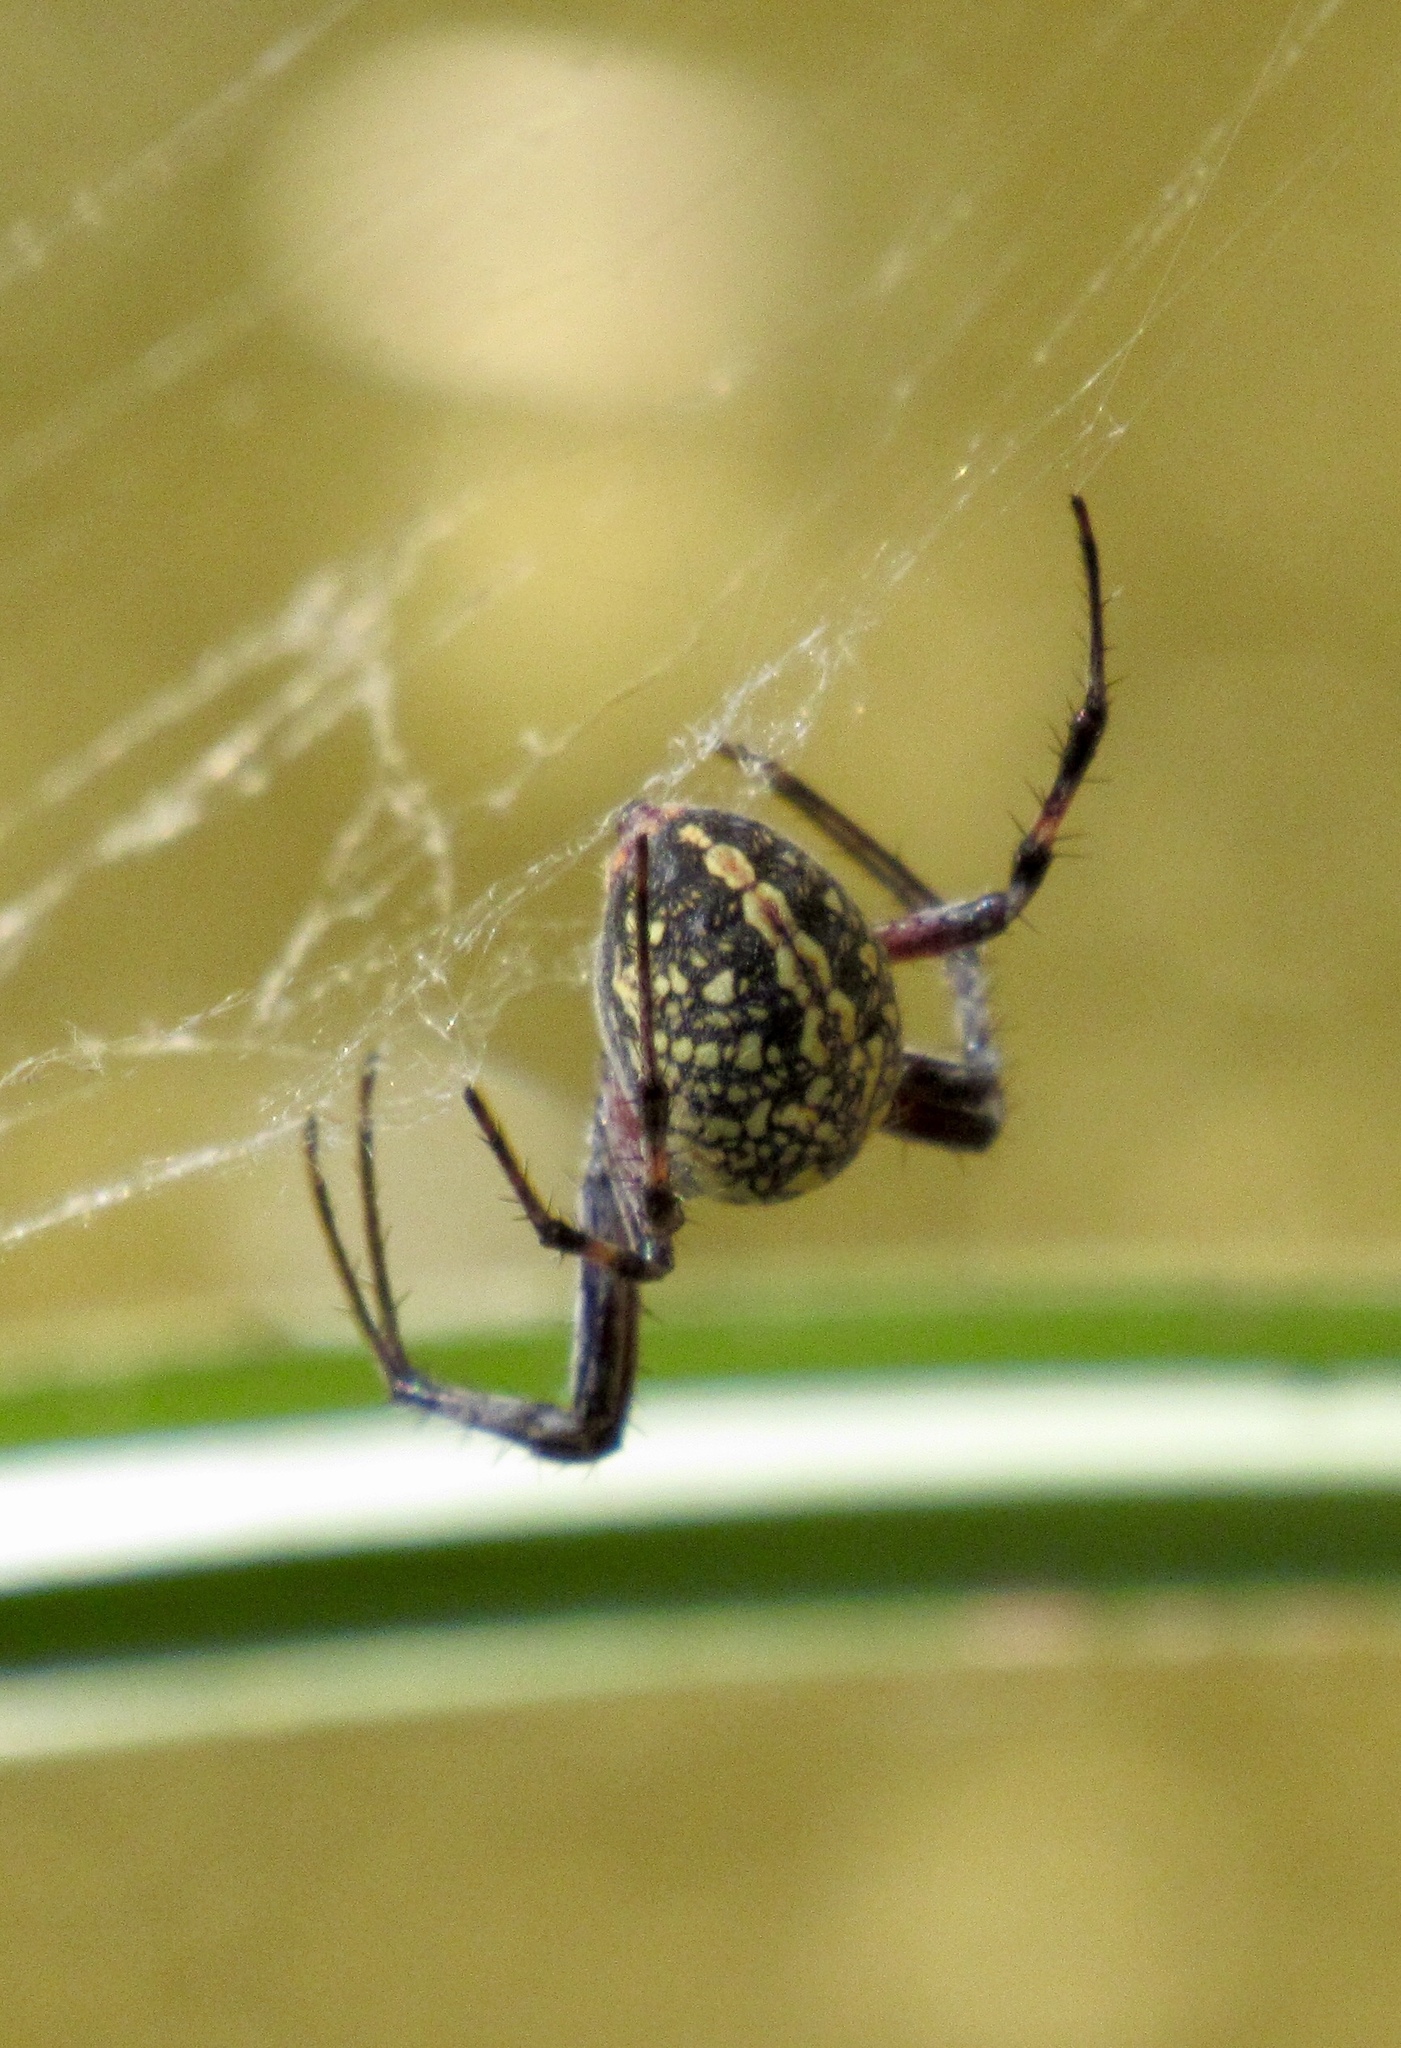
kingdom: Animalia
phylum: Arthropoda
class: Arachnida
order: Araneae
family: Araneidae
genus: Neoscona
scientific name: Neoscona oaxacensis
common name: Orb weavers
